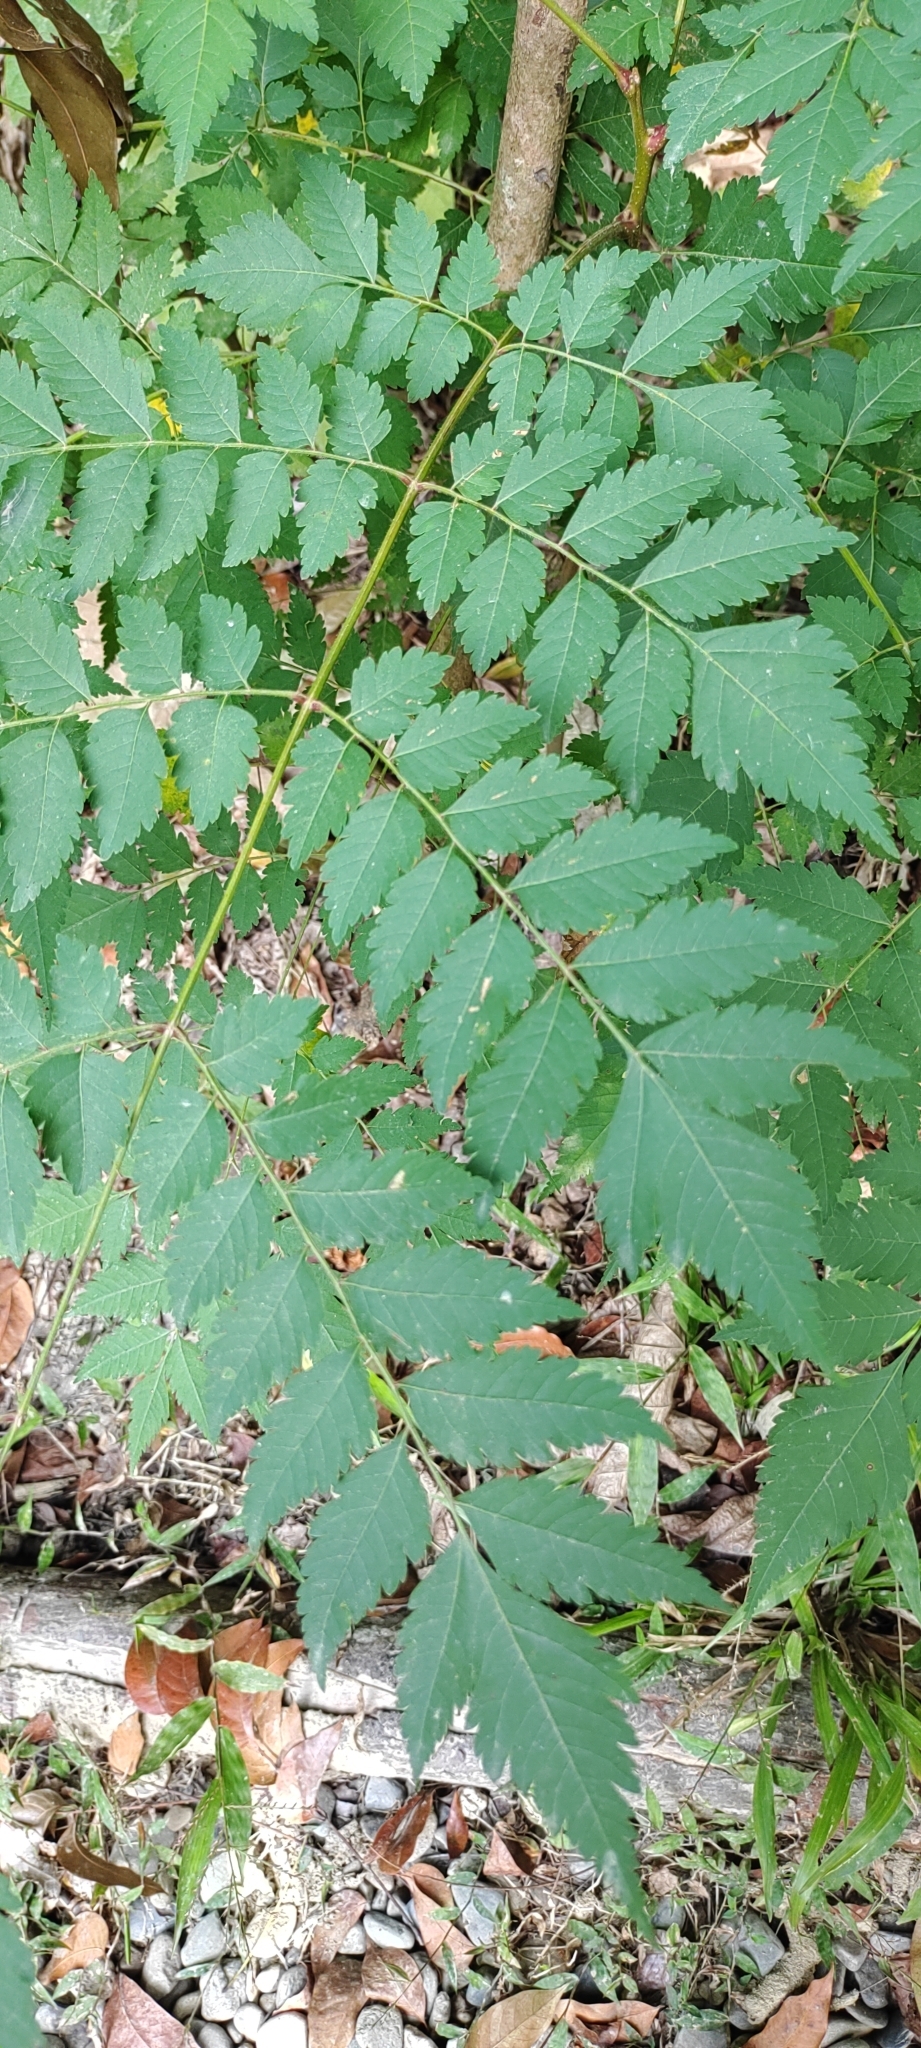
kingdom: Plantae
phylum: Tracheophyta
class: Magnoliopsida
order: Sapindales
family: Sapindaceae
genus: Koelreuteria
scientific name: Koelreuteria elegans
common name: Chinese flame tree
